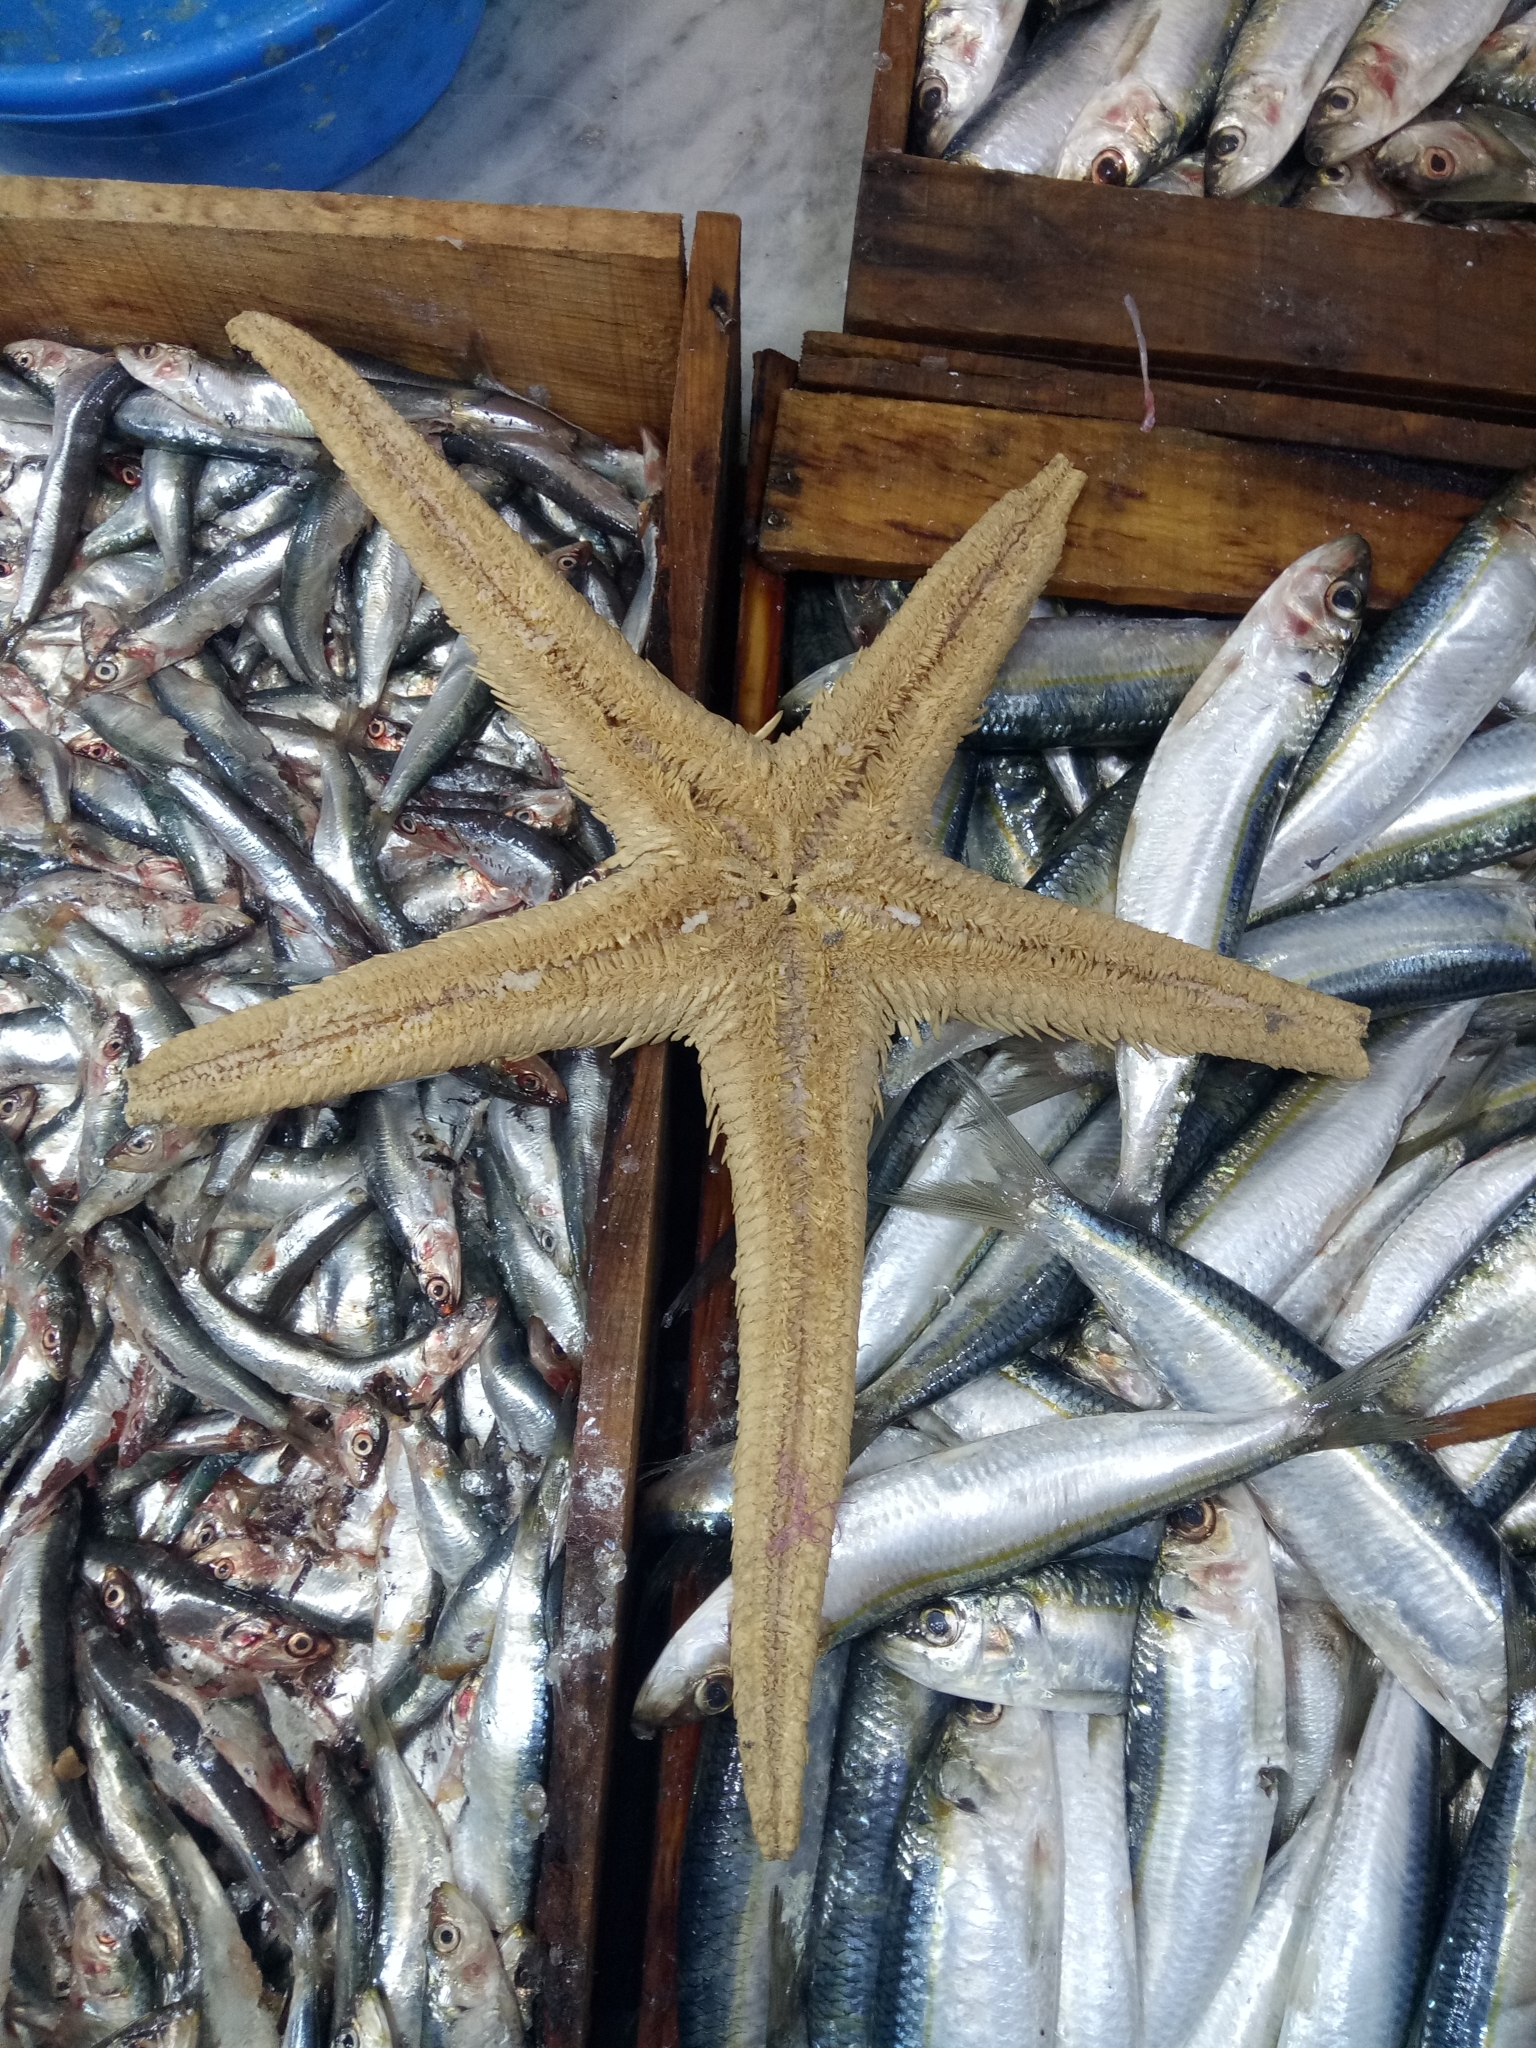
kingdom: Animalia
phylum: Echinodermata
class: Asteroidea
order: Paxillosida
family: Astropectinidae
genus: Astropecten
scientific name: Astropecten aranciacus
